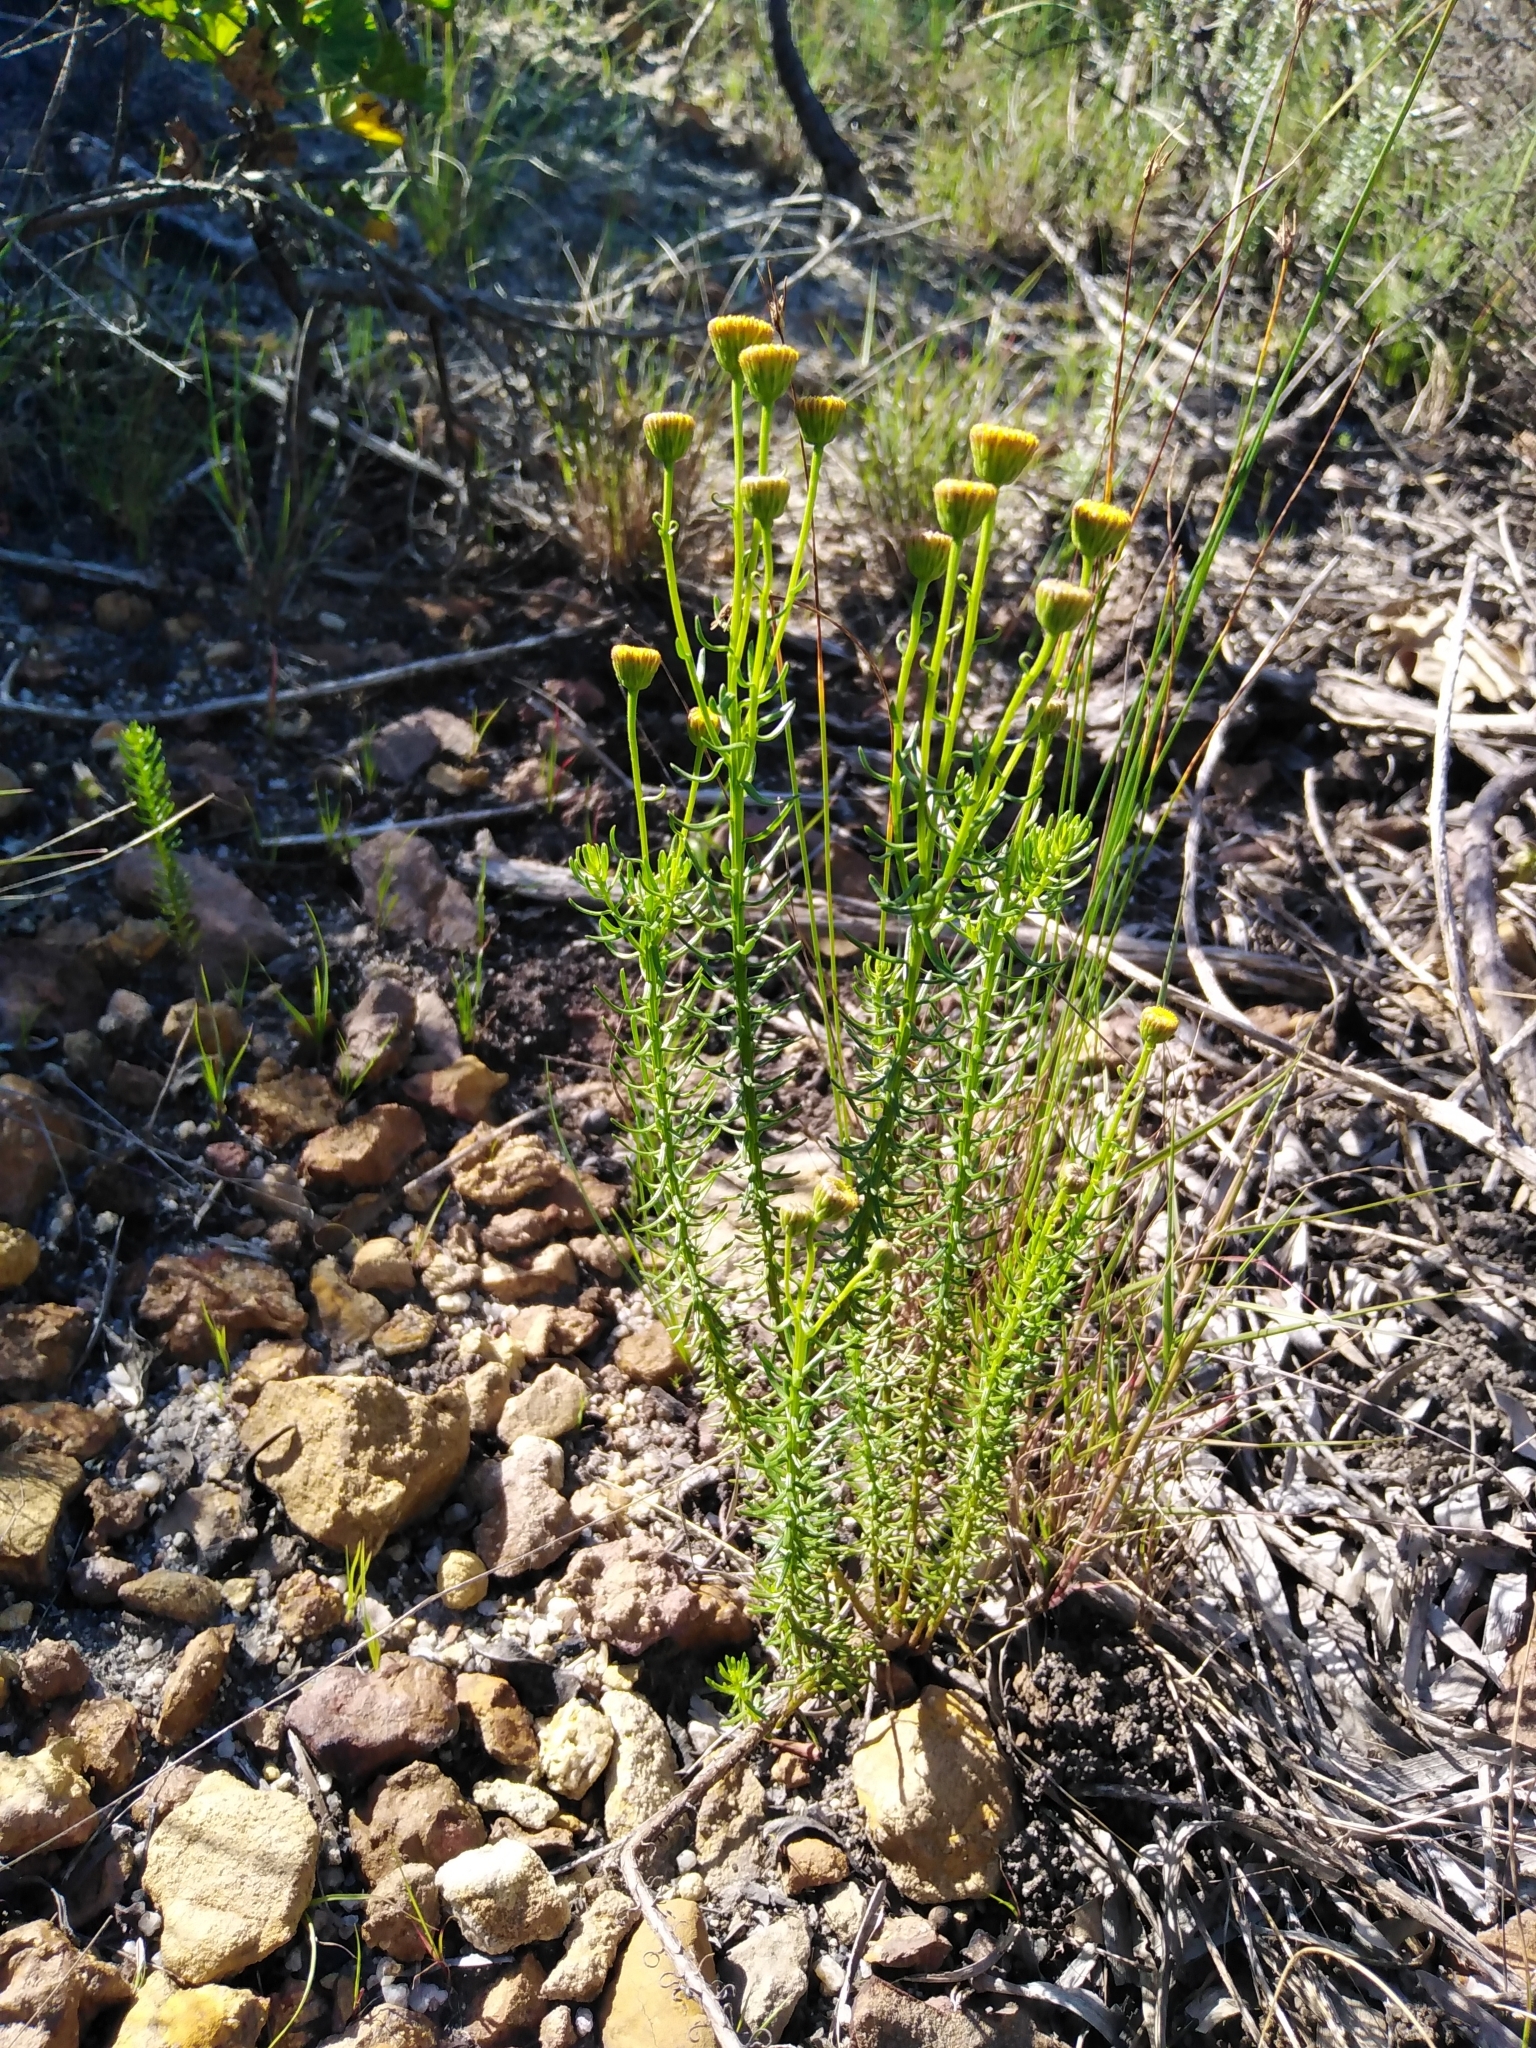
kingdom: Plantae
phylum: Tracheophyta
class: Magnoliopsida
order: Asterales
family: Asteraceae
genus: Chrysocoma
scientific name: Chrysocoma cernua
